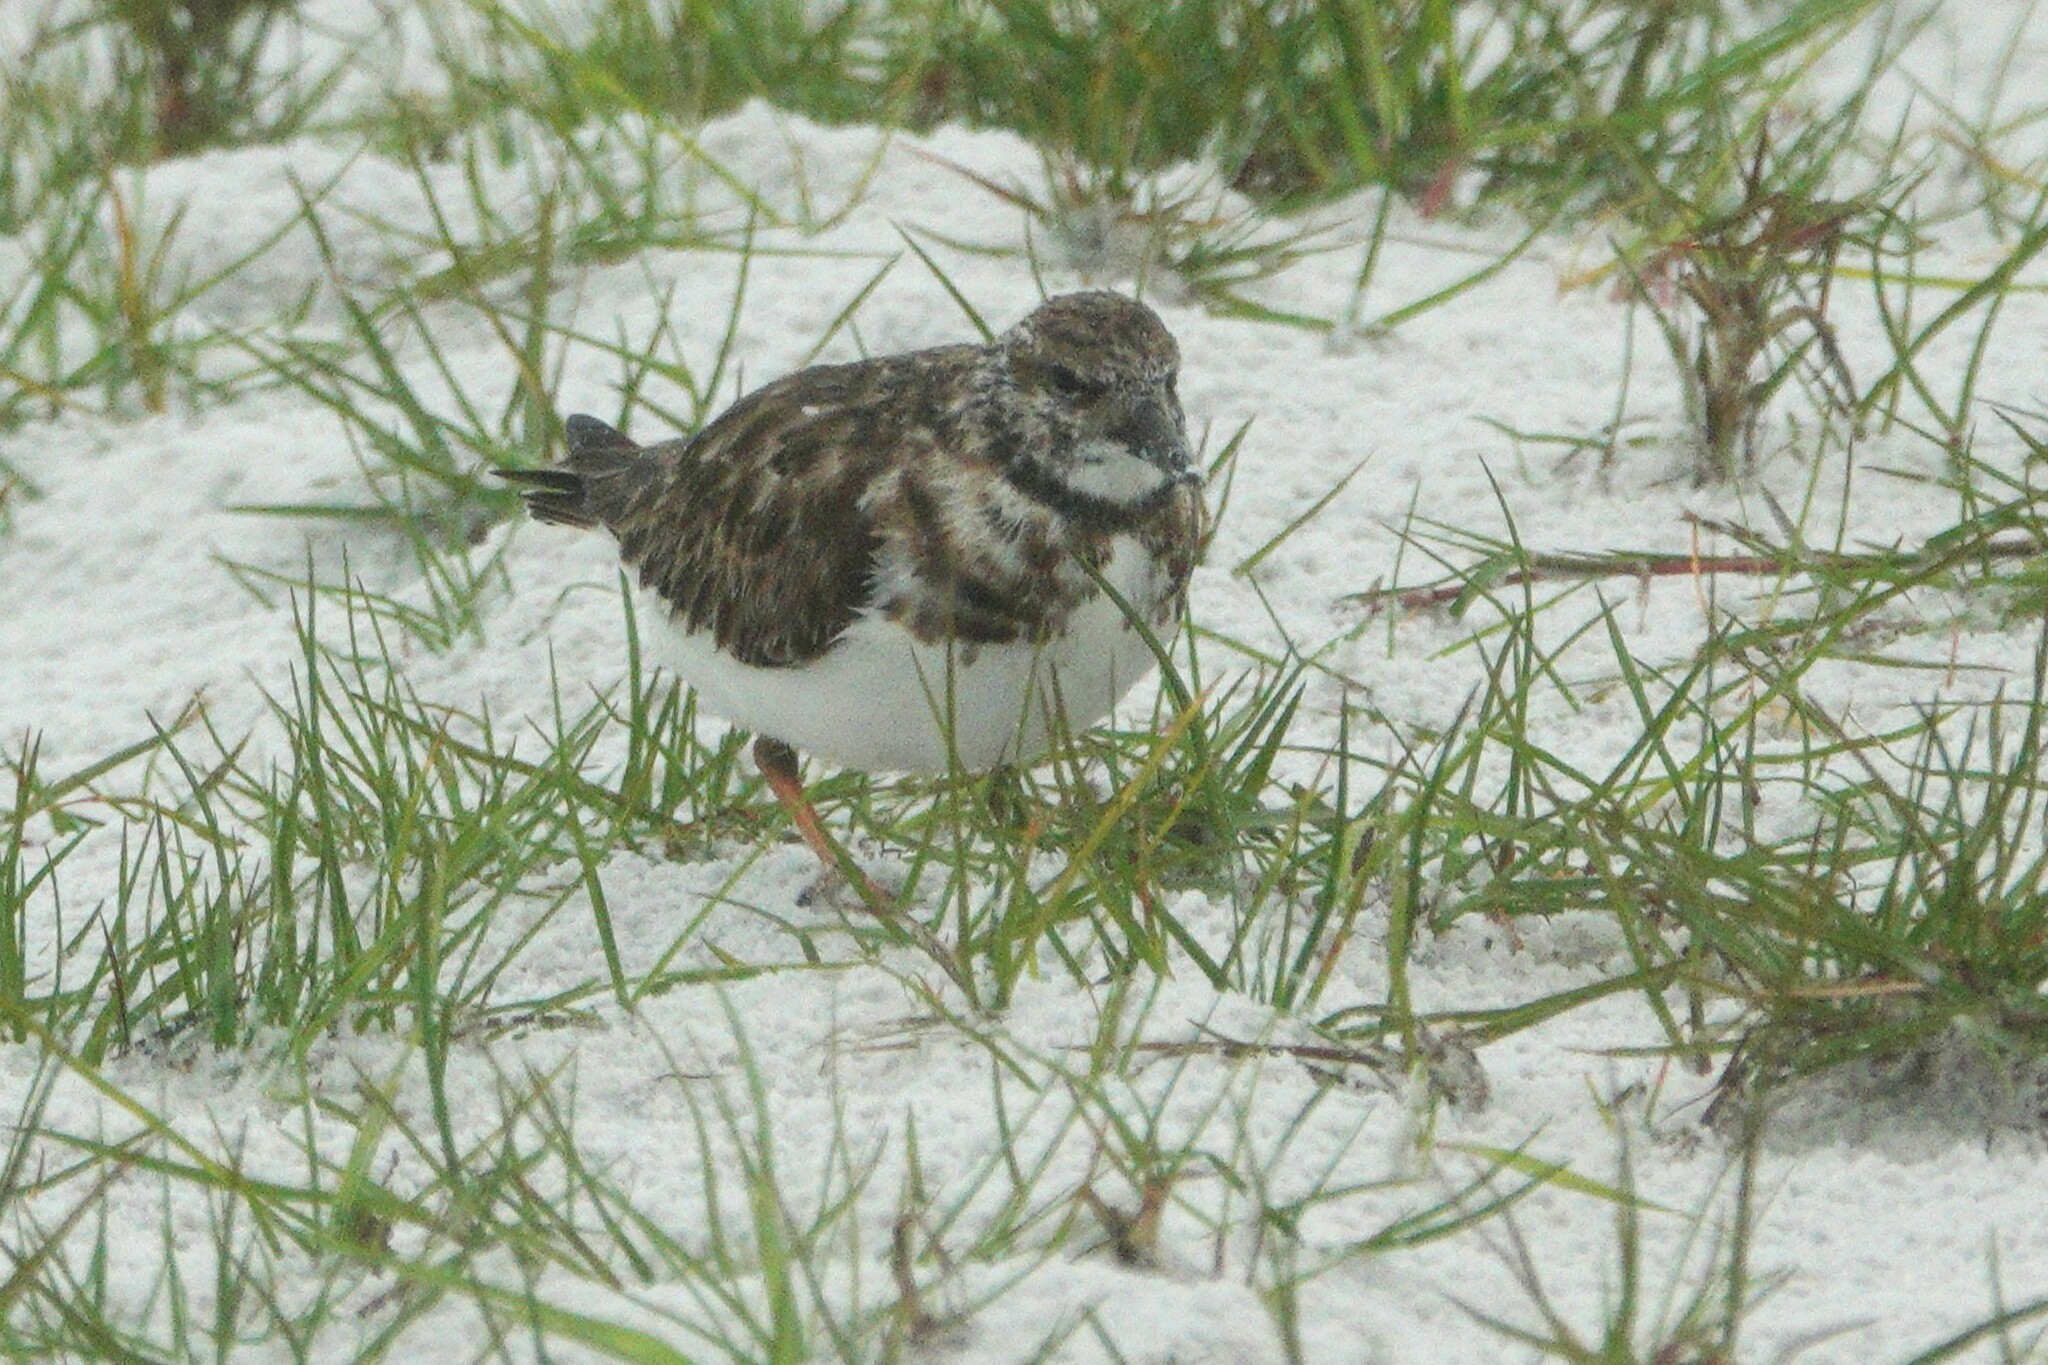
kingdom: Animalia
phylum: Chordata
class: Aves
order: Charadriiformes
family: Scolopacidae
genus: Arenaria
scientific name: Arenaria interpres
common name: Ruddy turnstone
